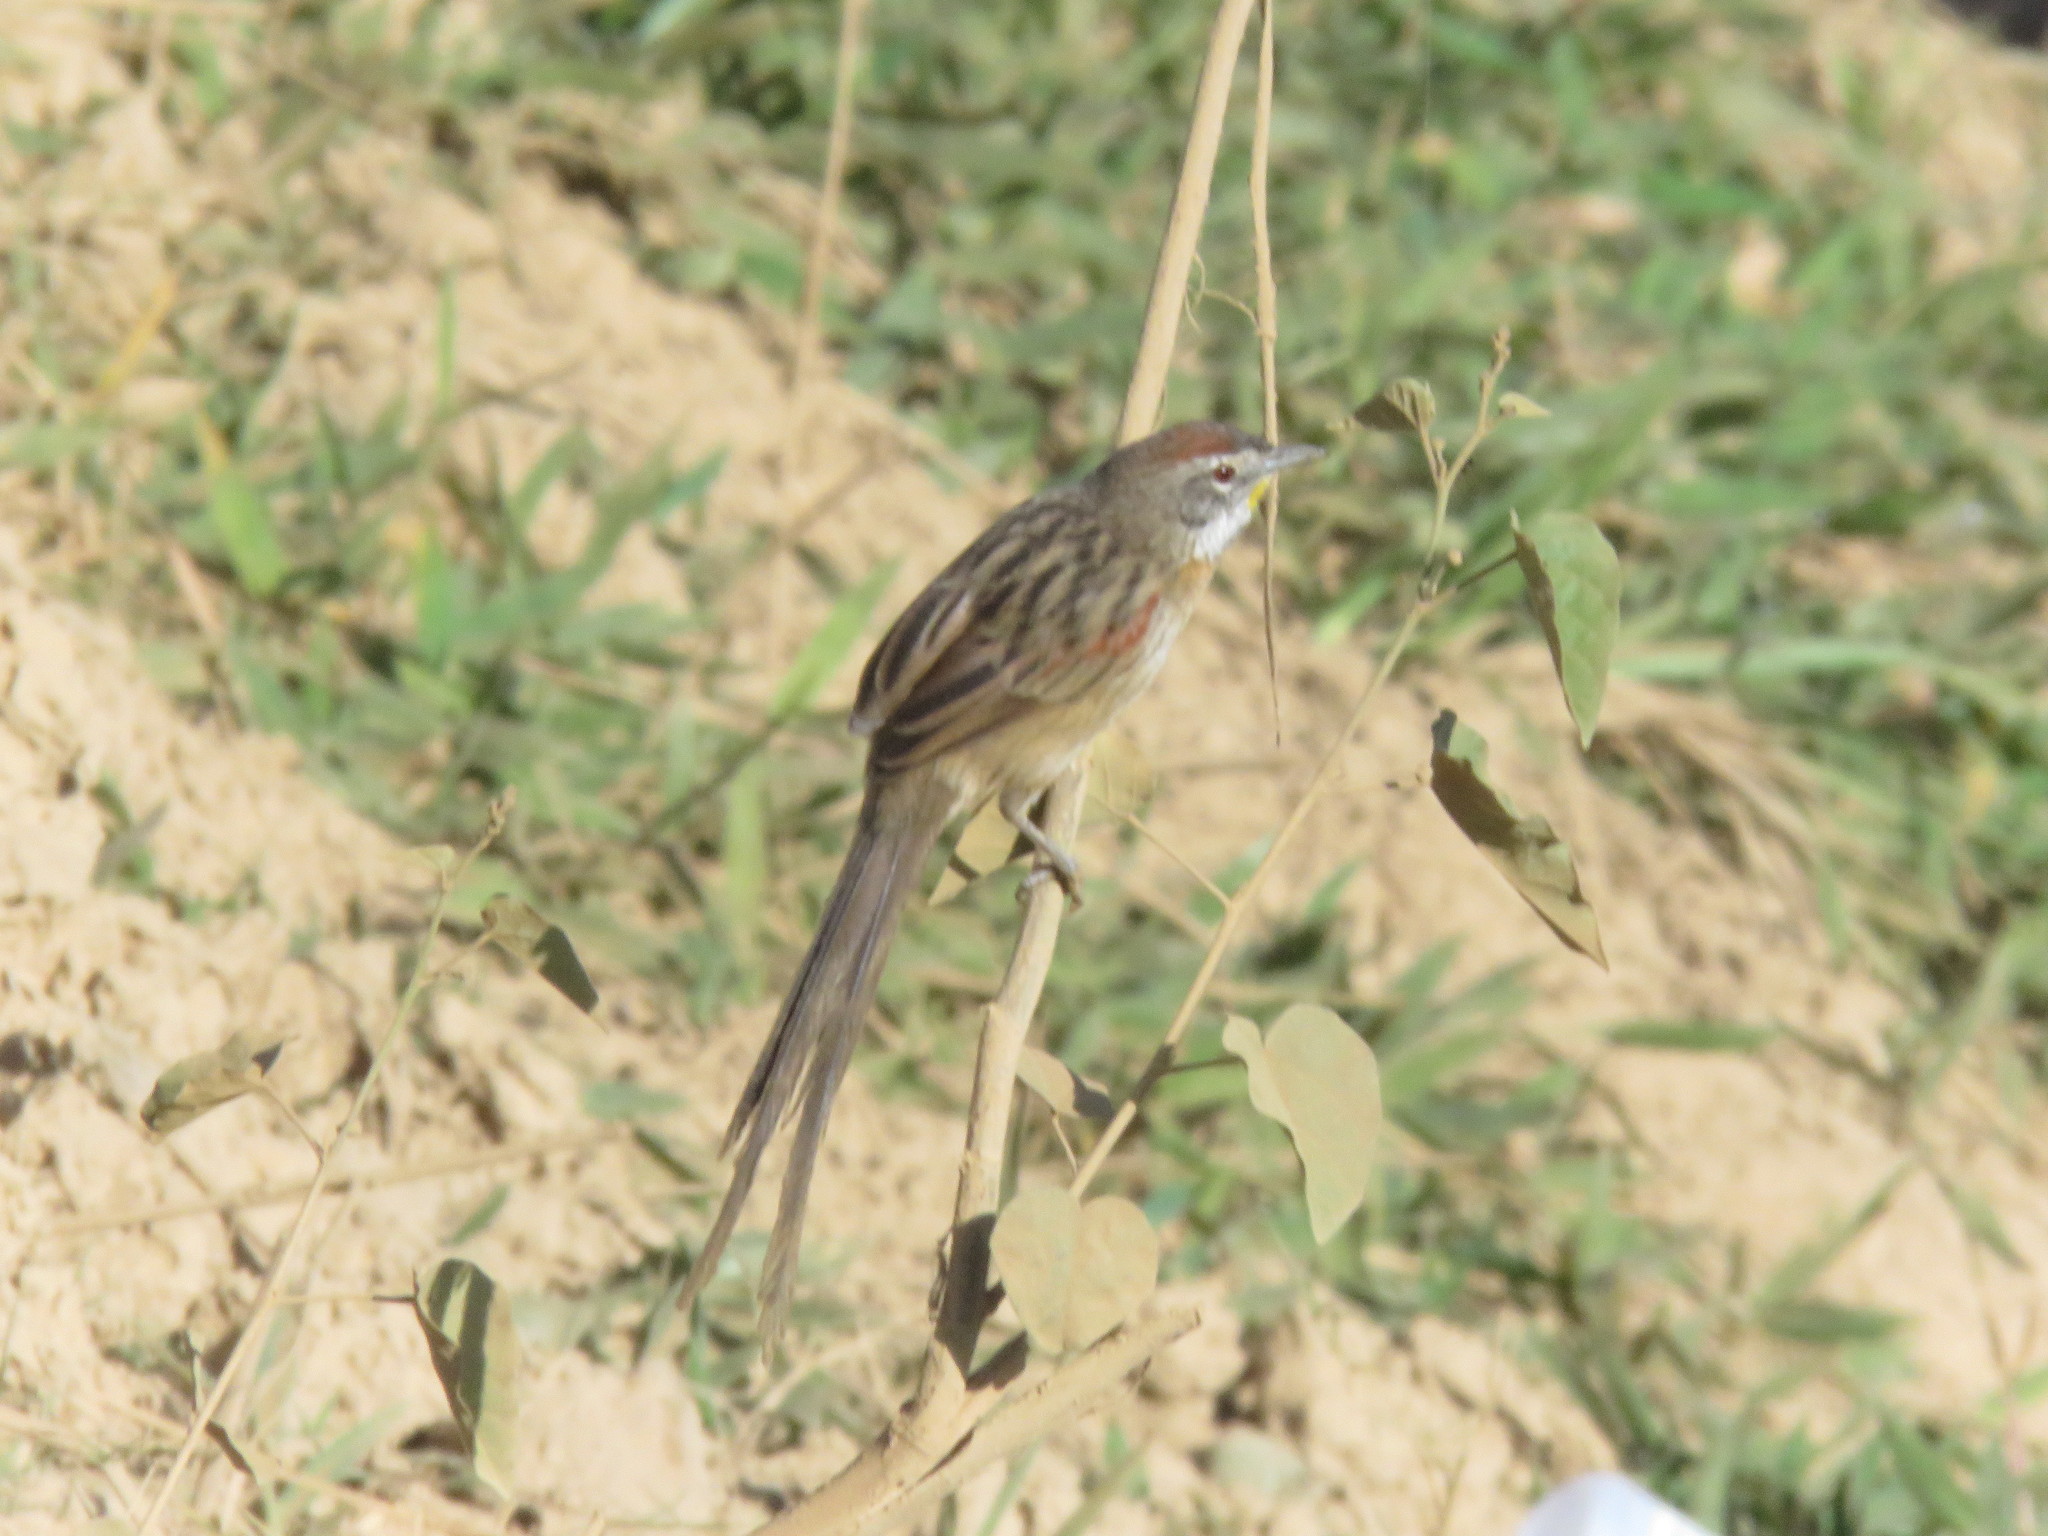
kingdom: Animalia
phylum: Chordata
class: Aves
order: Passeriformes
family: Furnariidae
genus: Schoeniophylax
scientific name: Schoeniophylax phryganophilus
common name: Chotoy spinetail
